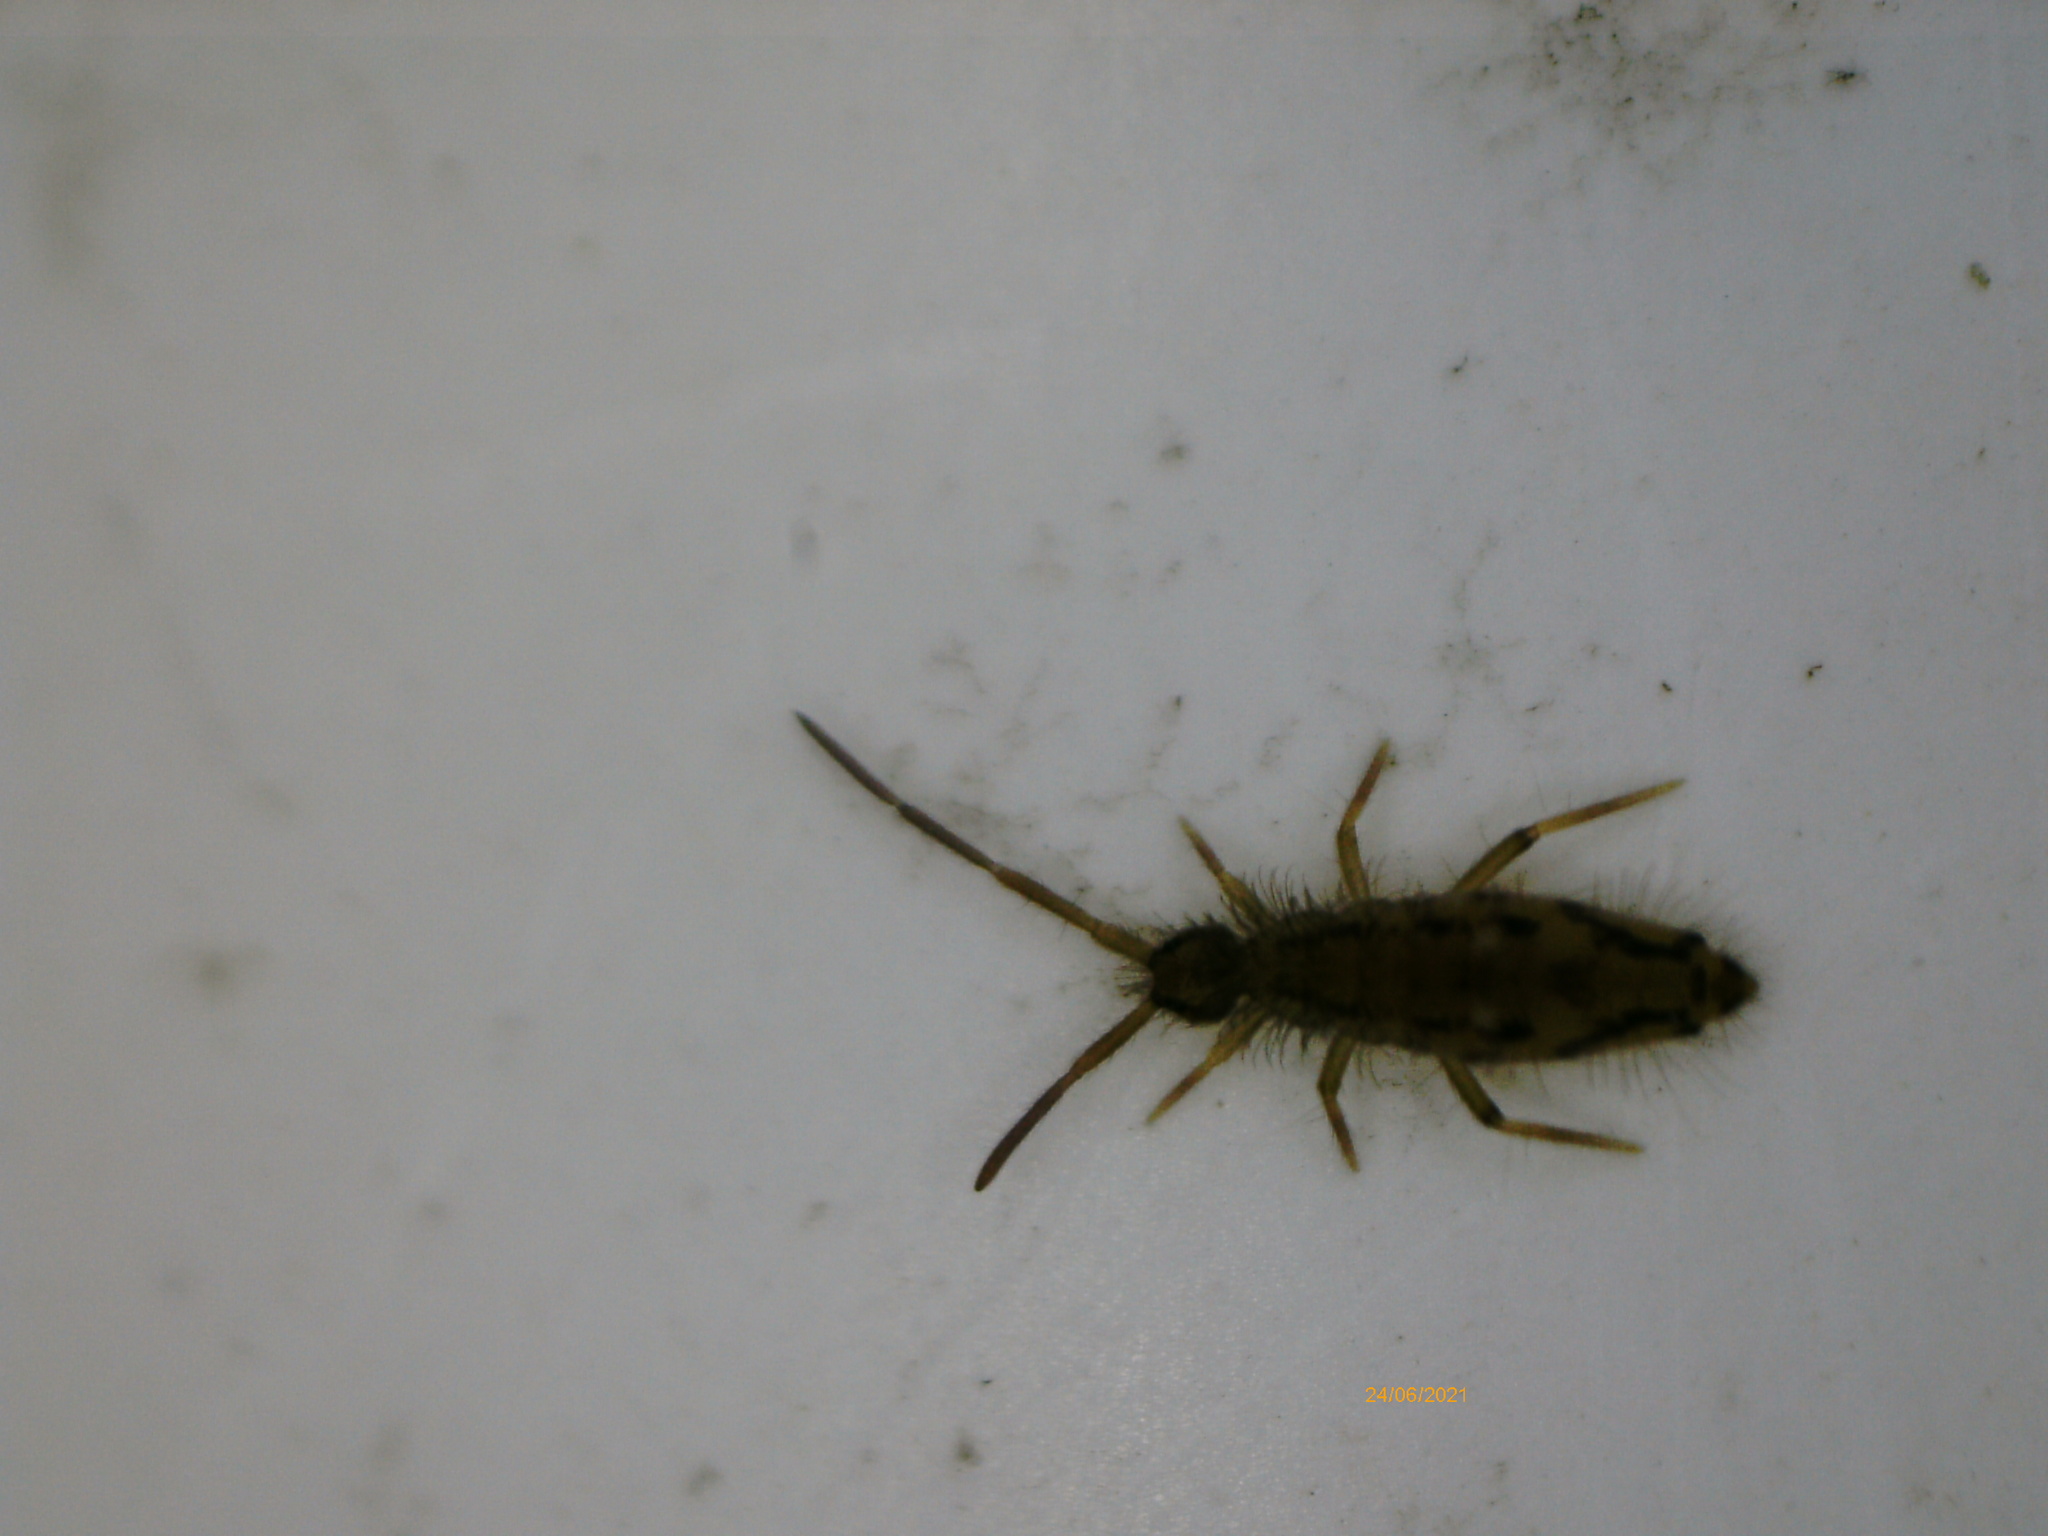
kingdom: Animalia
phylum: Arthropoda
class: Collembola
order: Entomobryomorpha
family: Entomobryidae
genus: Entomobrya
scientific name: Entomobrya intermedia
